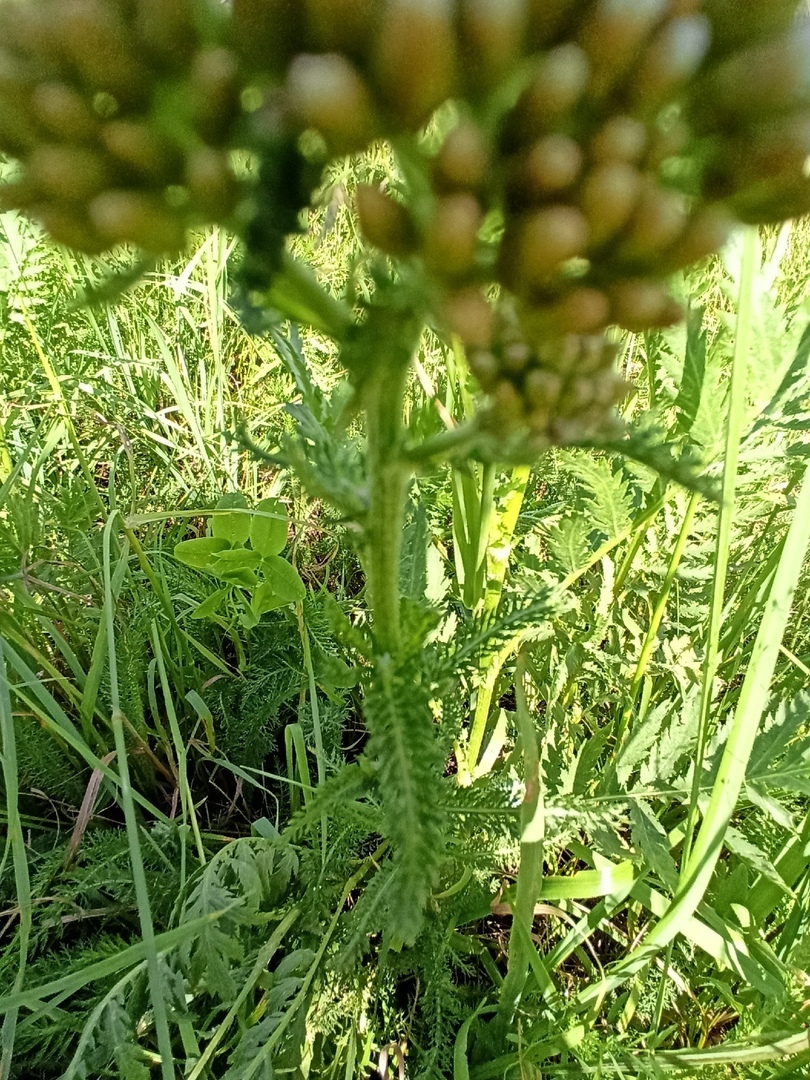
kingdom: Plantae
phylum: Tracheophyta
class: Magnoliopsida
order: Asterales
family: Asteraceae
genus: Achillea
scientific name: Achillea millefolium
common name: Yarrow
